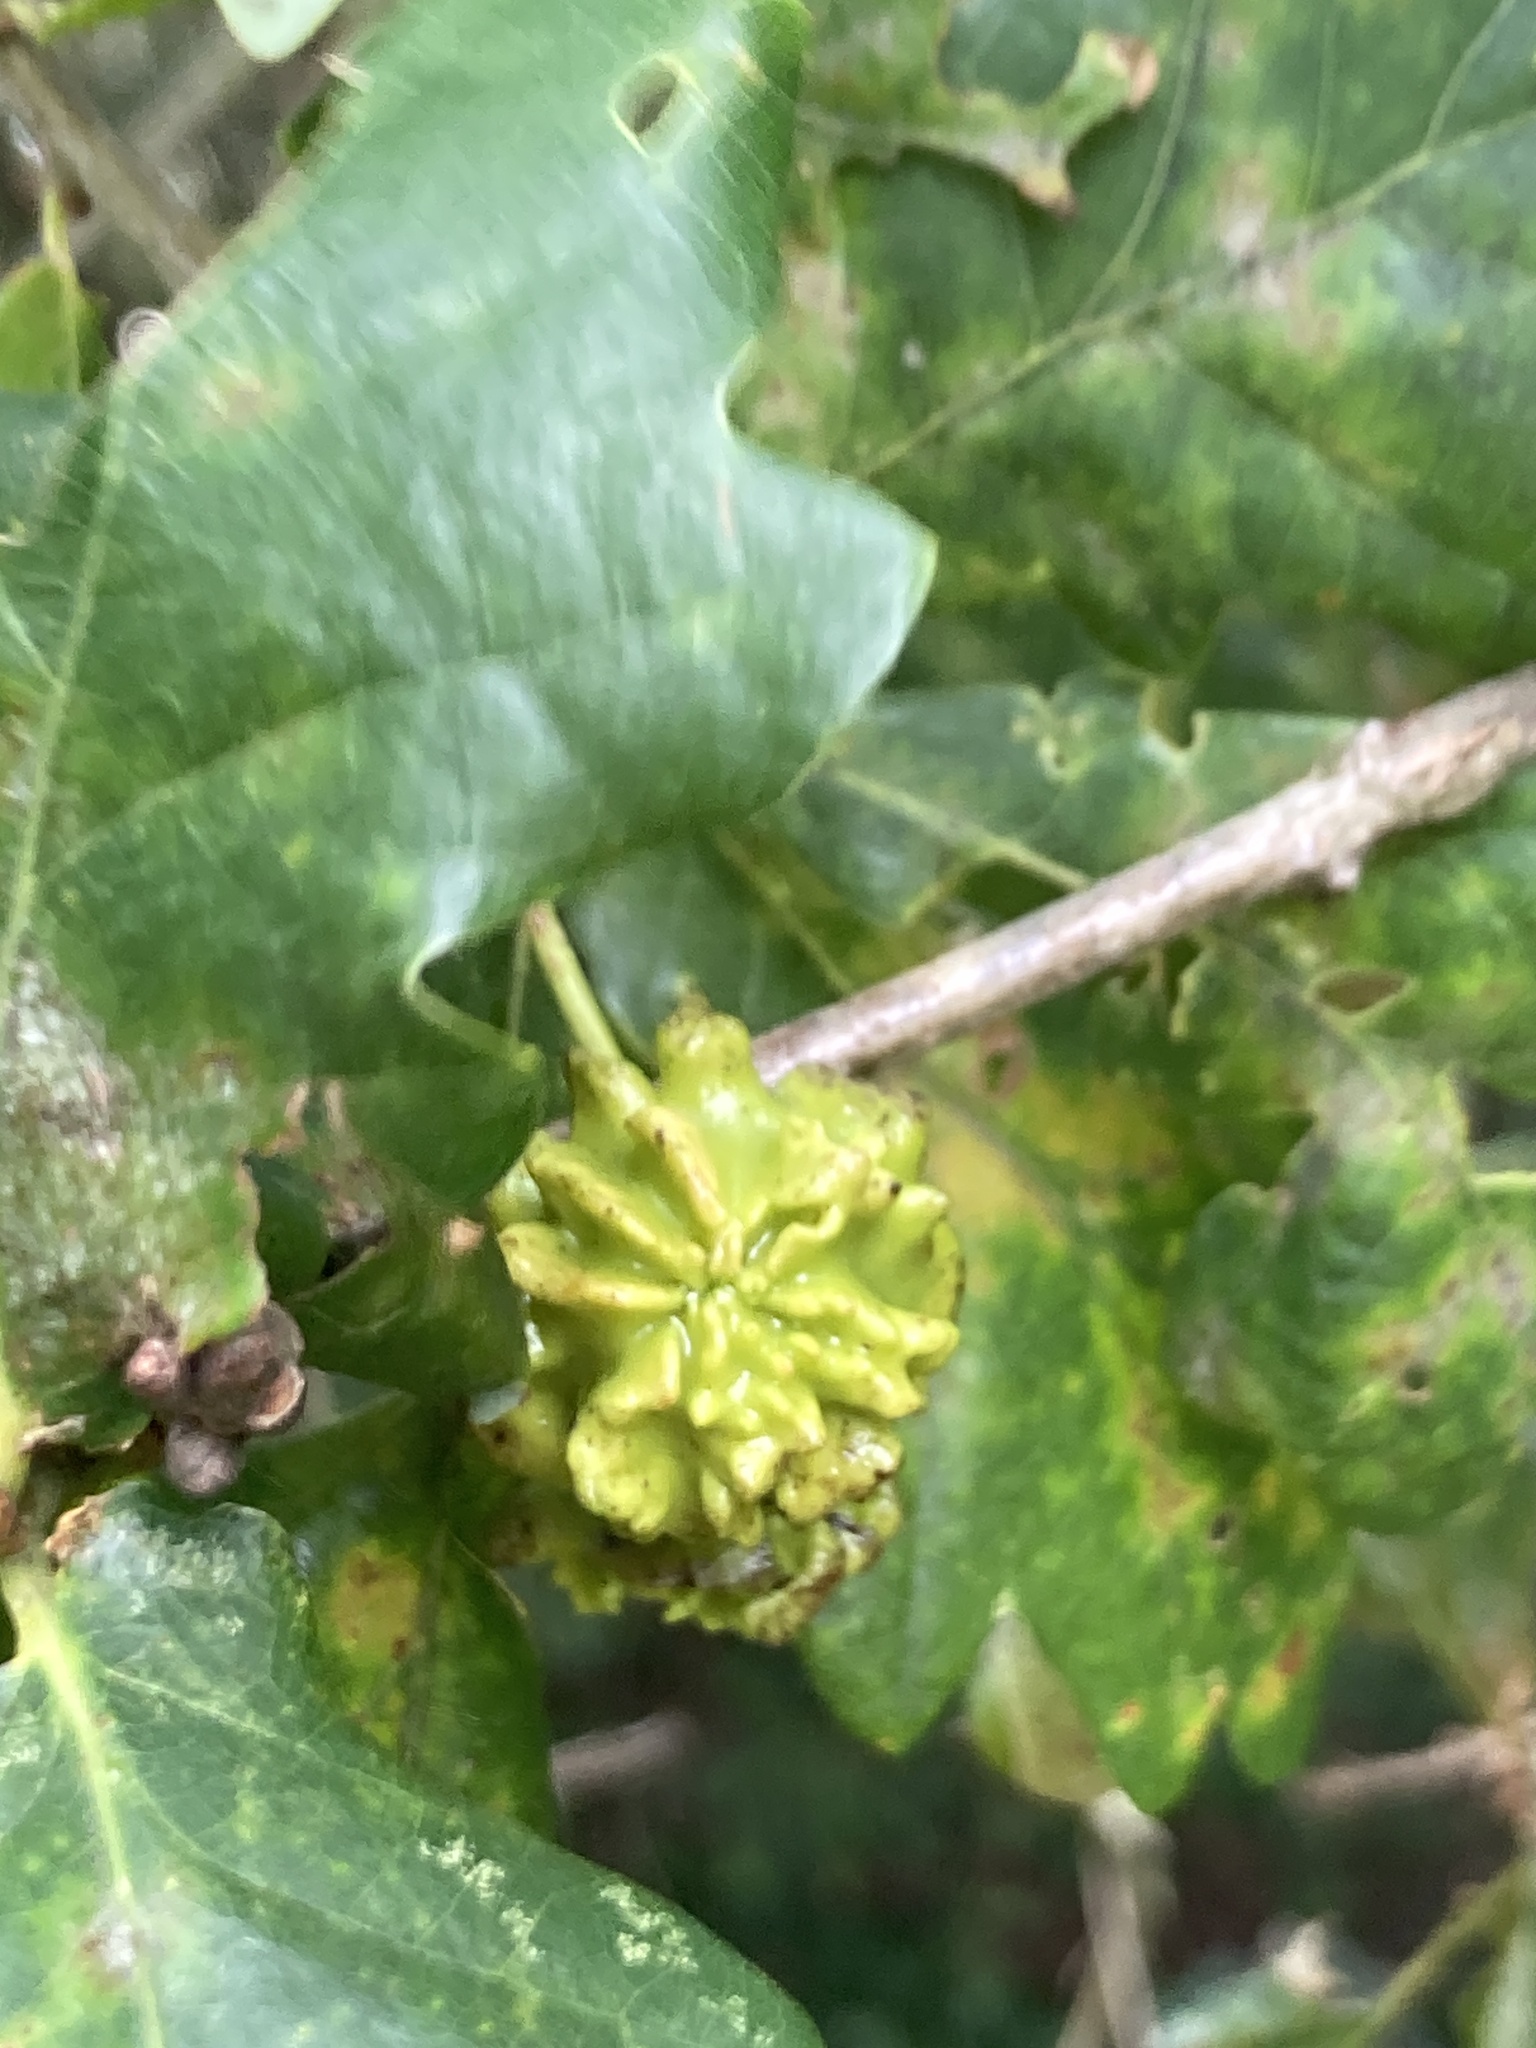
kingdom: Animalia
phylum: Arthropoda
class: Insecta
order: Hymenoptera
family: Cynipidae
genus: Andricus
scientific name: Andricus quercuscalicis
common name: Knopper gall
